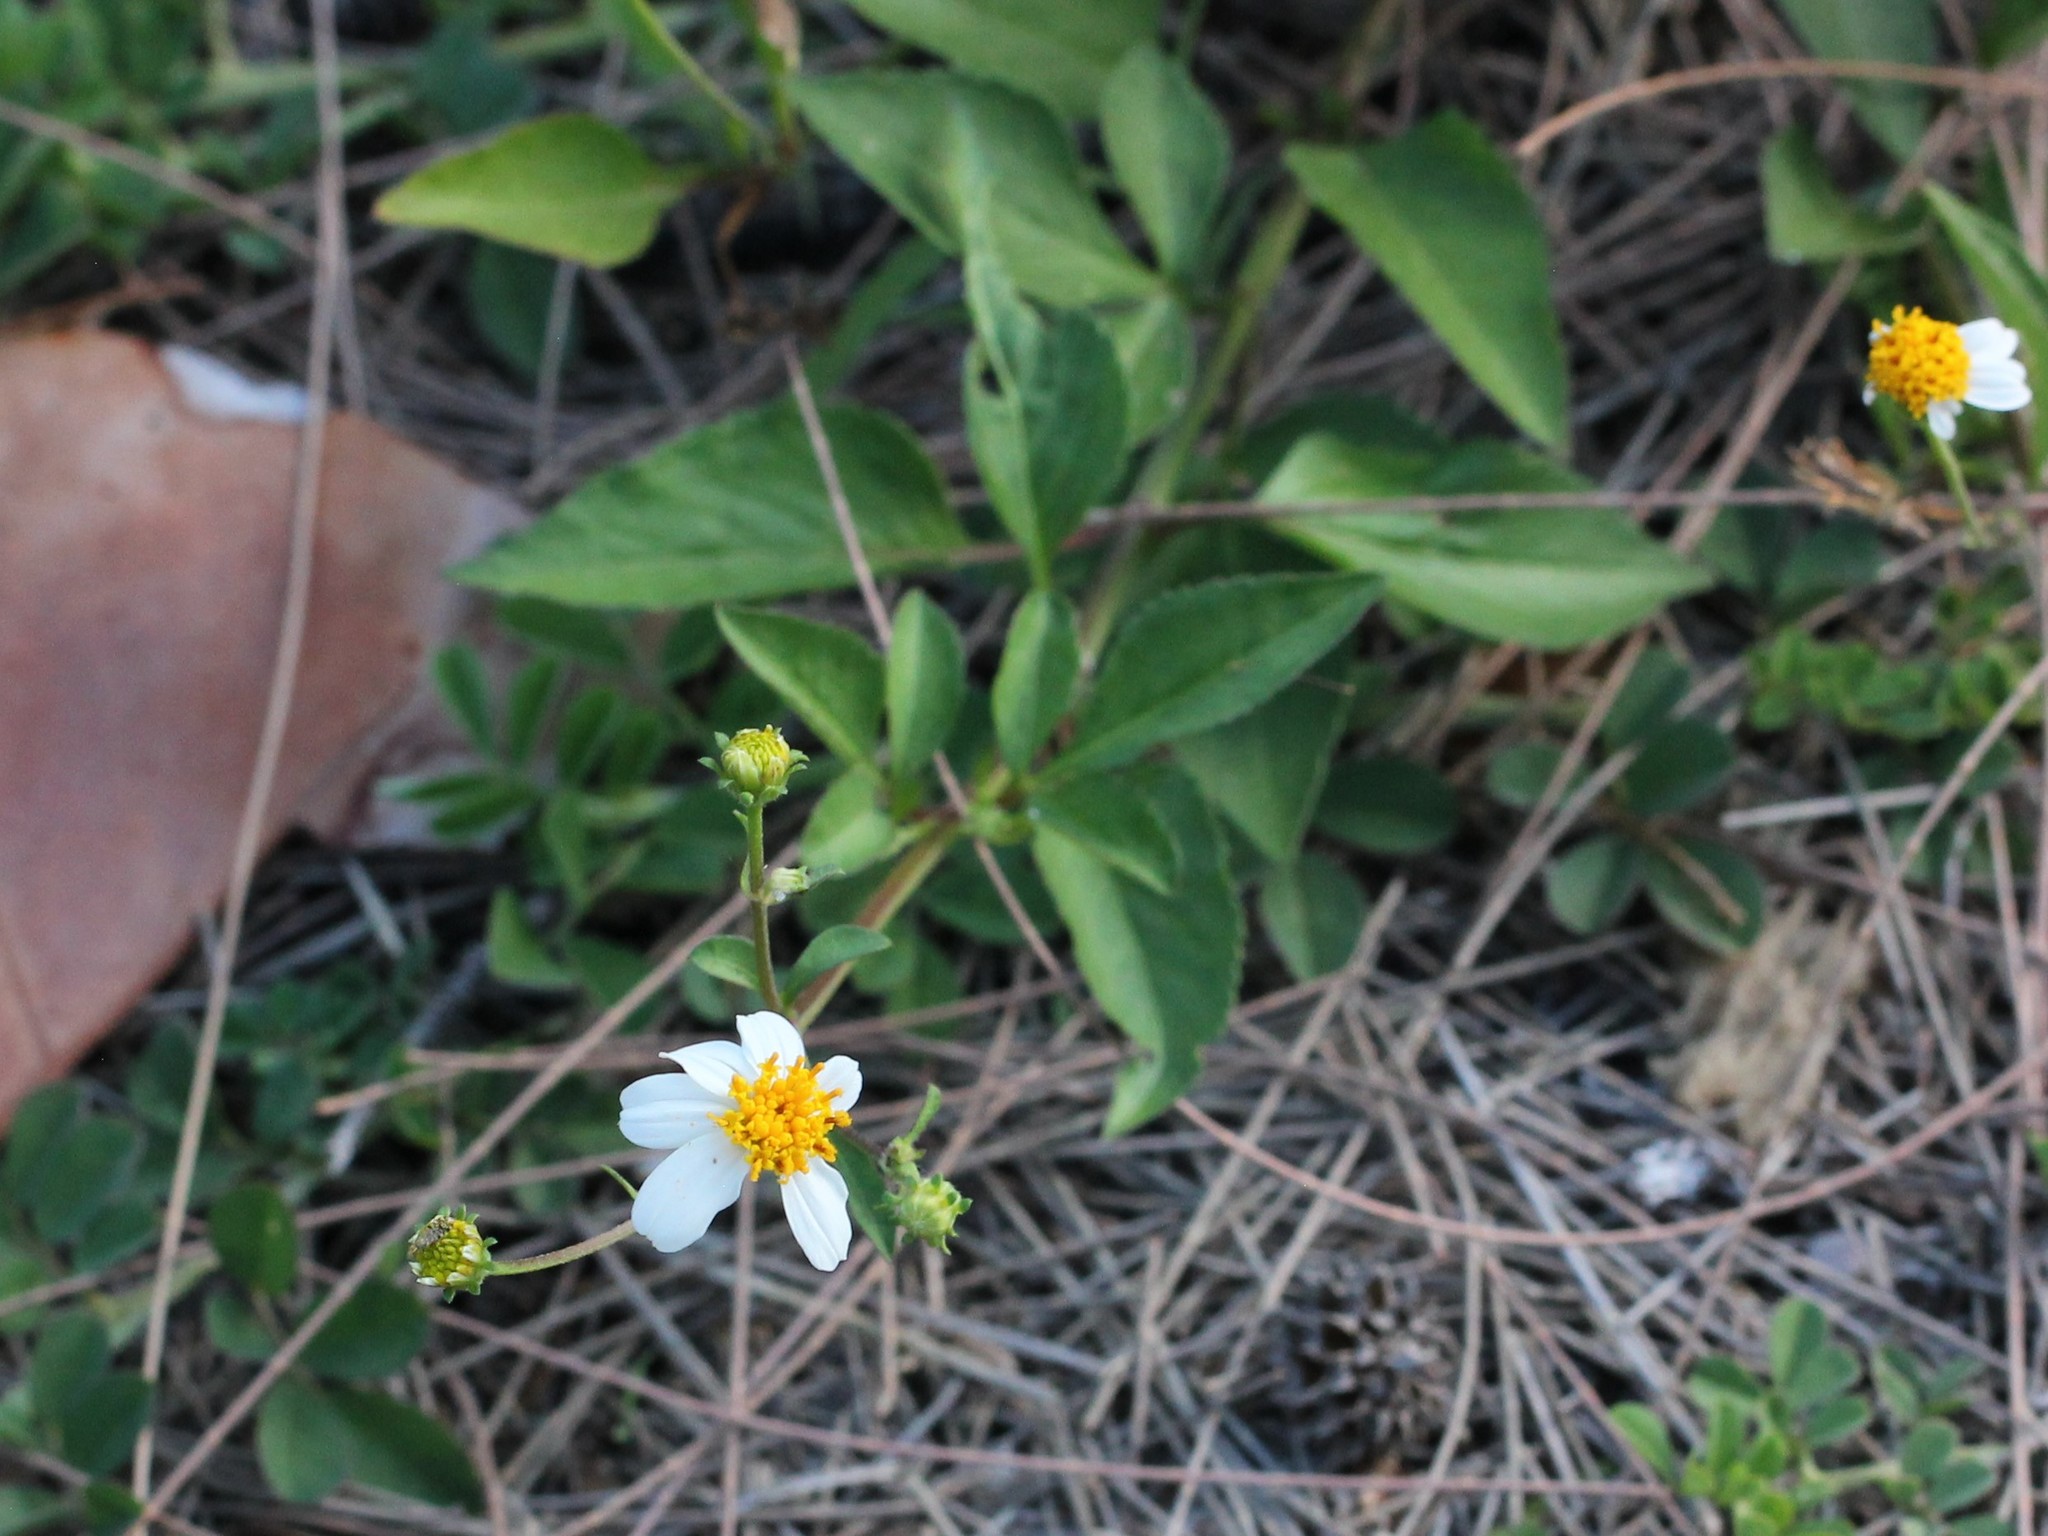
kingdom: Plantae
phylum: Tracheophyta
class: Magnoliopsida
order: Asterales
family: Asteraceae
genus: Bidens
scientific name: Bidens alba
